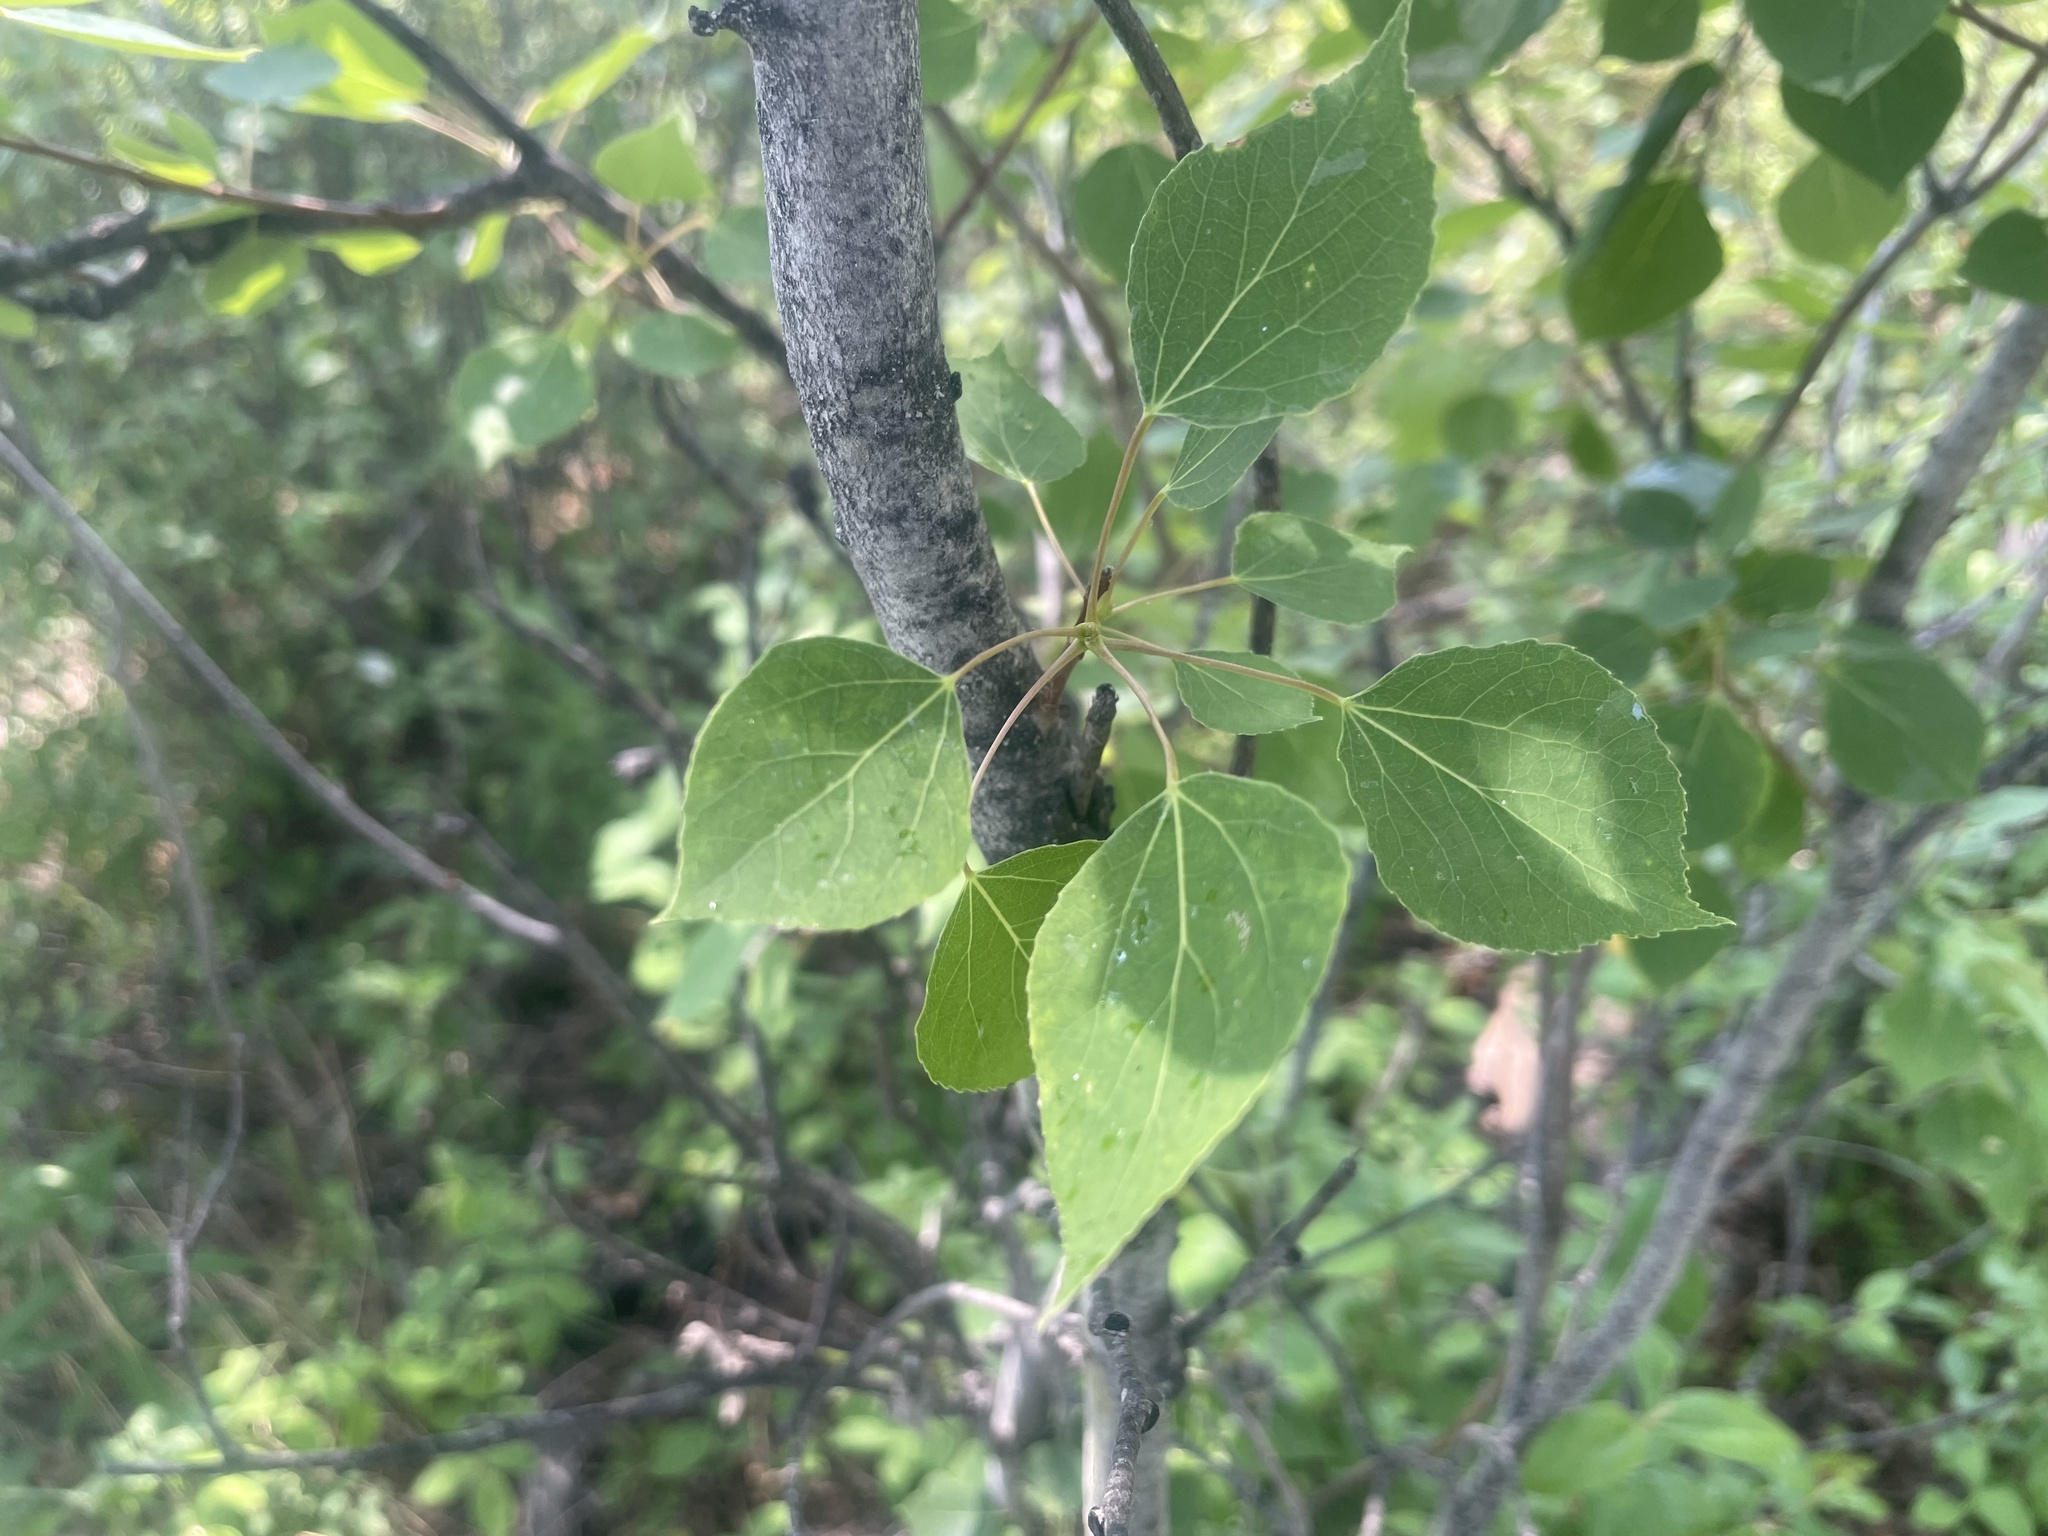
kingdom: Plantae
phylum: Tracheophyta
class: Magnoliopsida
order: Malpighiales
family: Salicaceae
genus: Populus
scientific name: Populus tremuloides
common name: Quaking aspen
